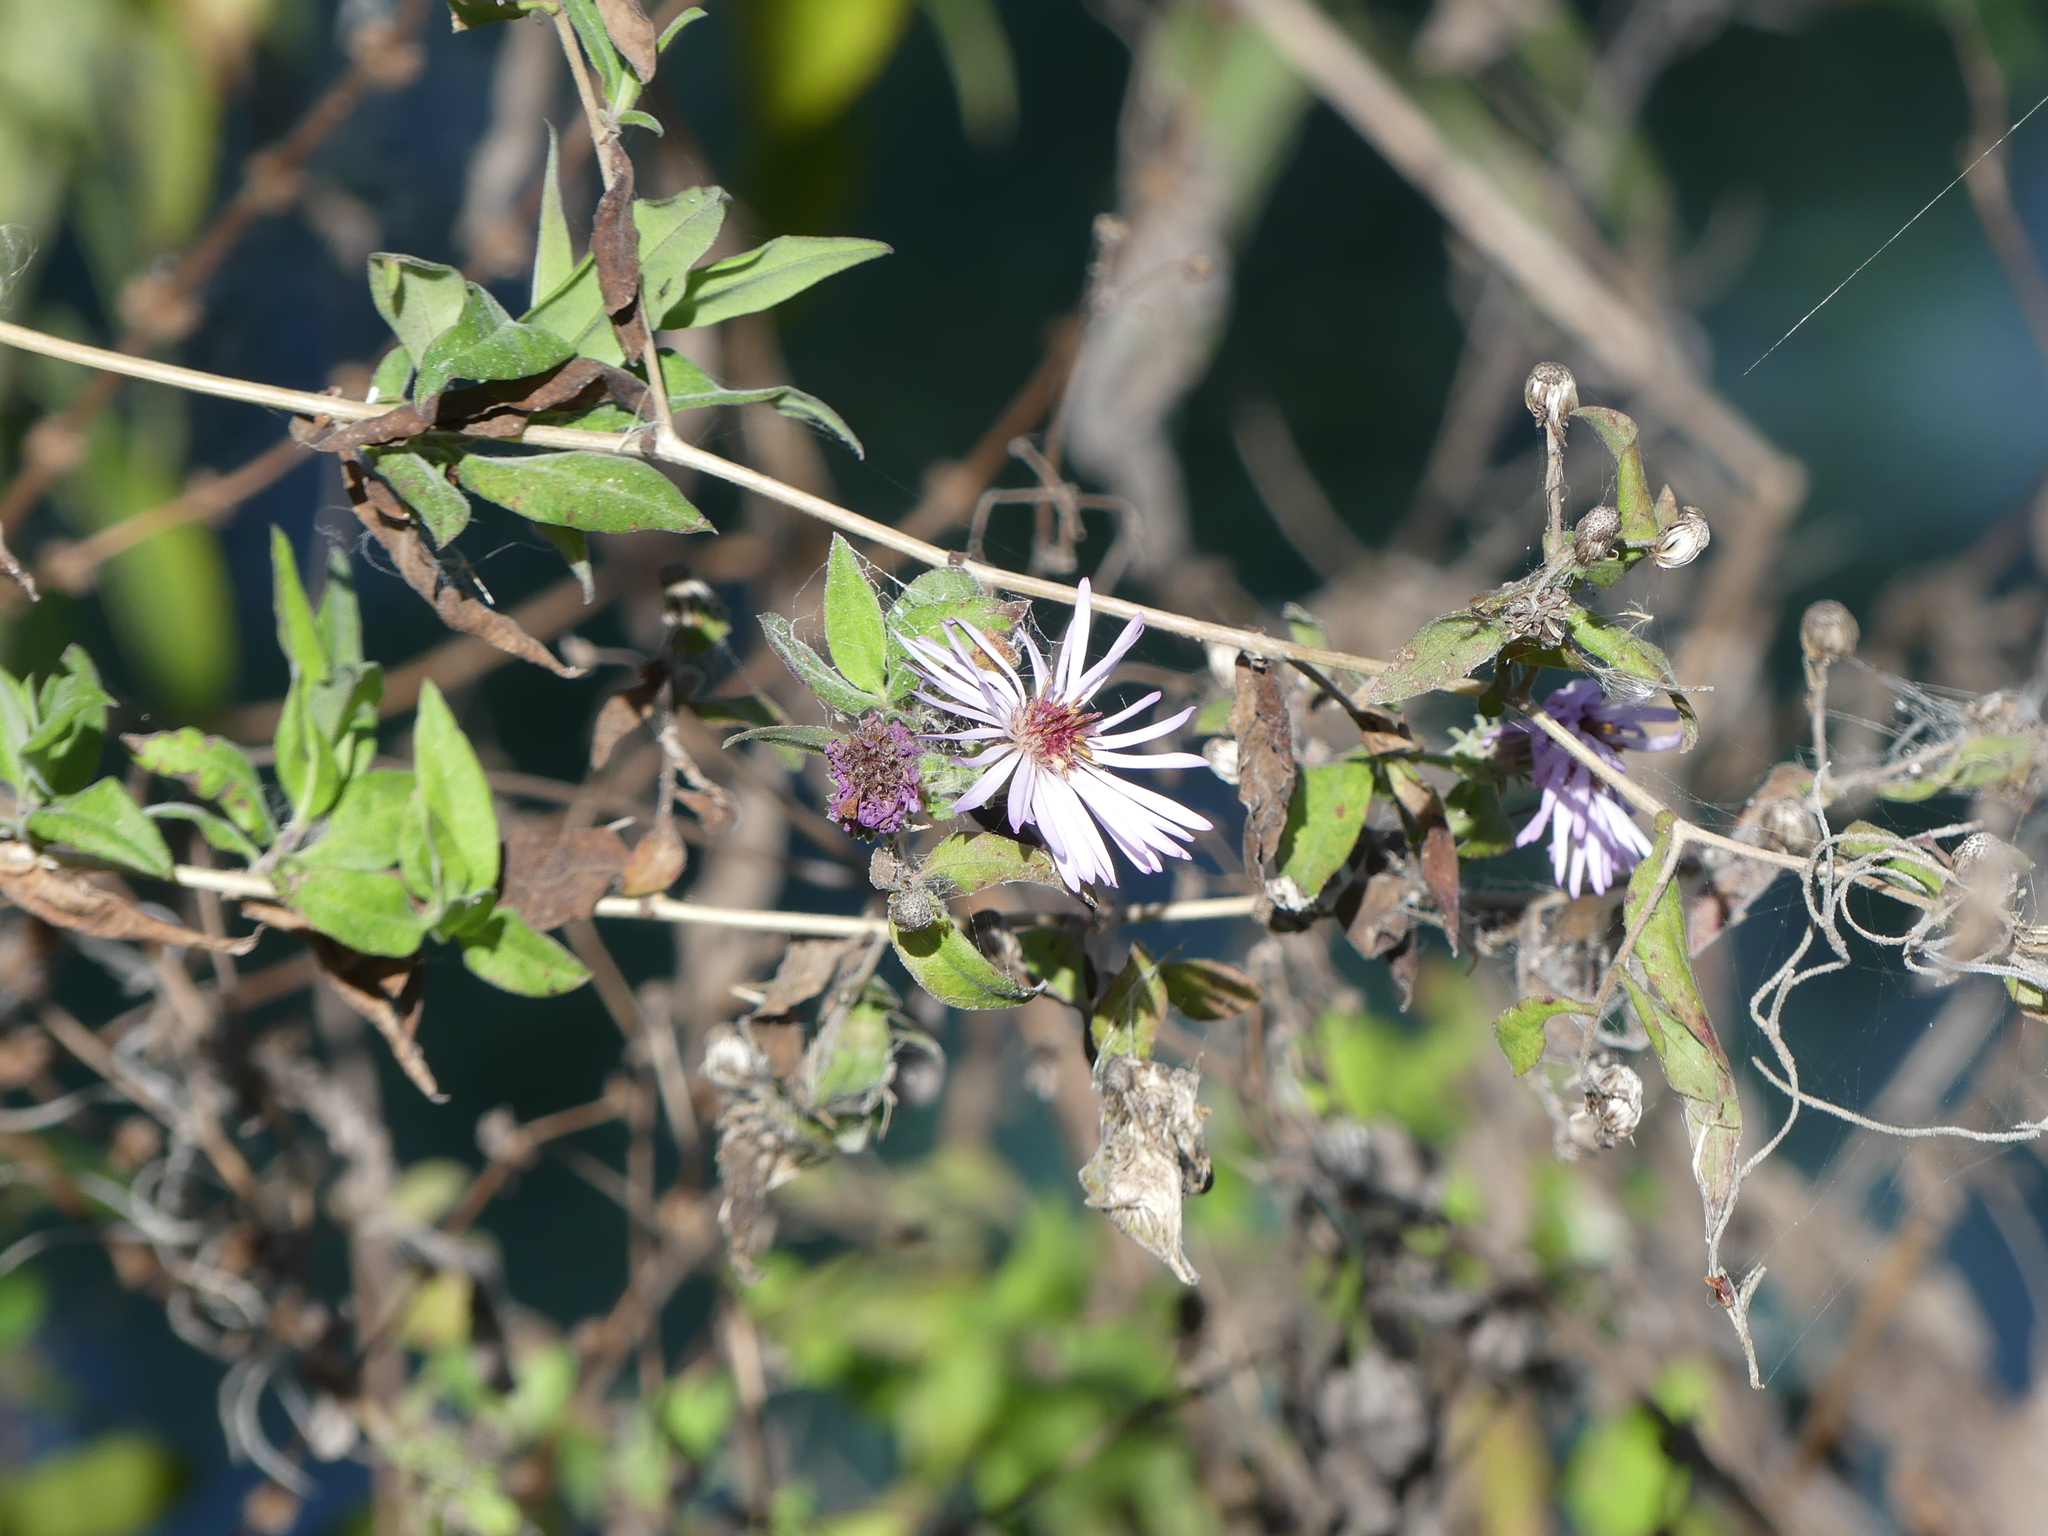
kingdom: Plantae
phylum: Tracheophyta
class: Magnoliopsida
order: Asterales
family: Asteraceae
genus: Ampelaster
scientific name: Ampelaster carolinianus
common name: Climbing aster
